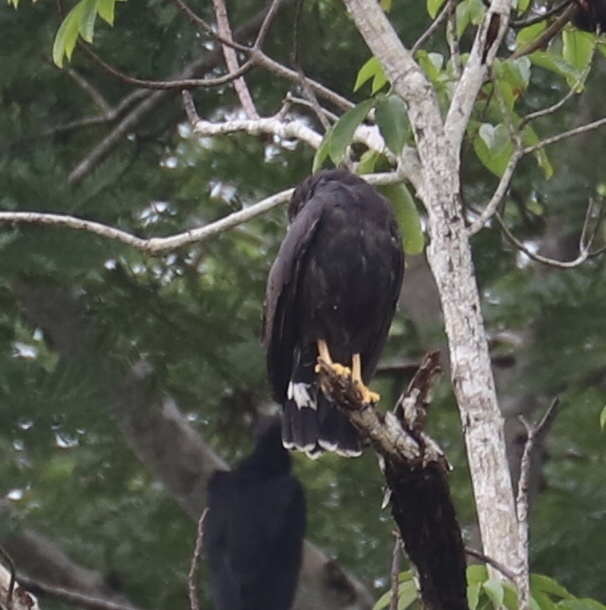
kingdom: Animalia
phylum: Chordata
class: Aves
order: Accipitriformes
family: Accipitridae
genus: Buteogallus
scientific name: Buteogallus anthracinus
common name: Common black hawk
